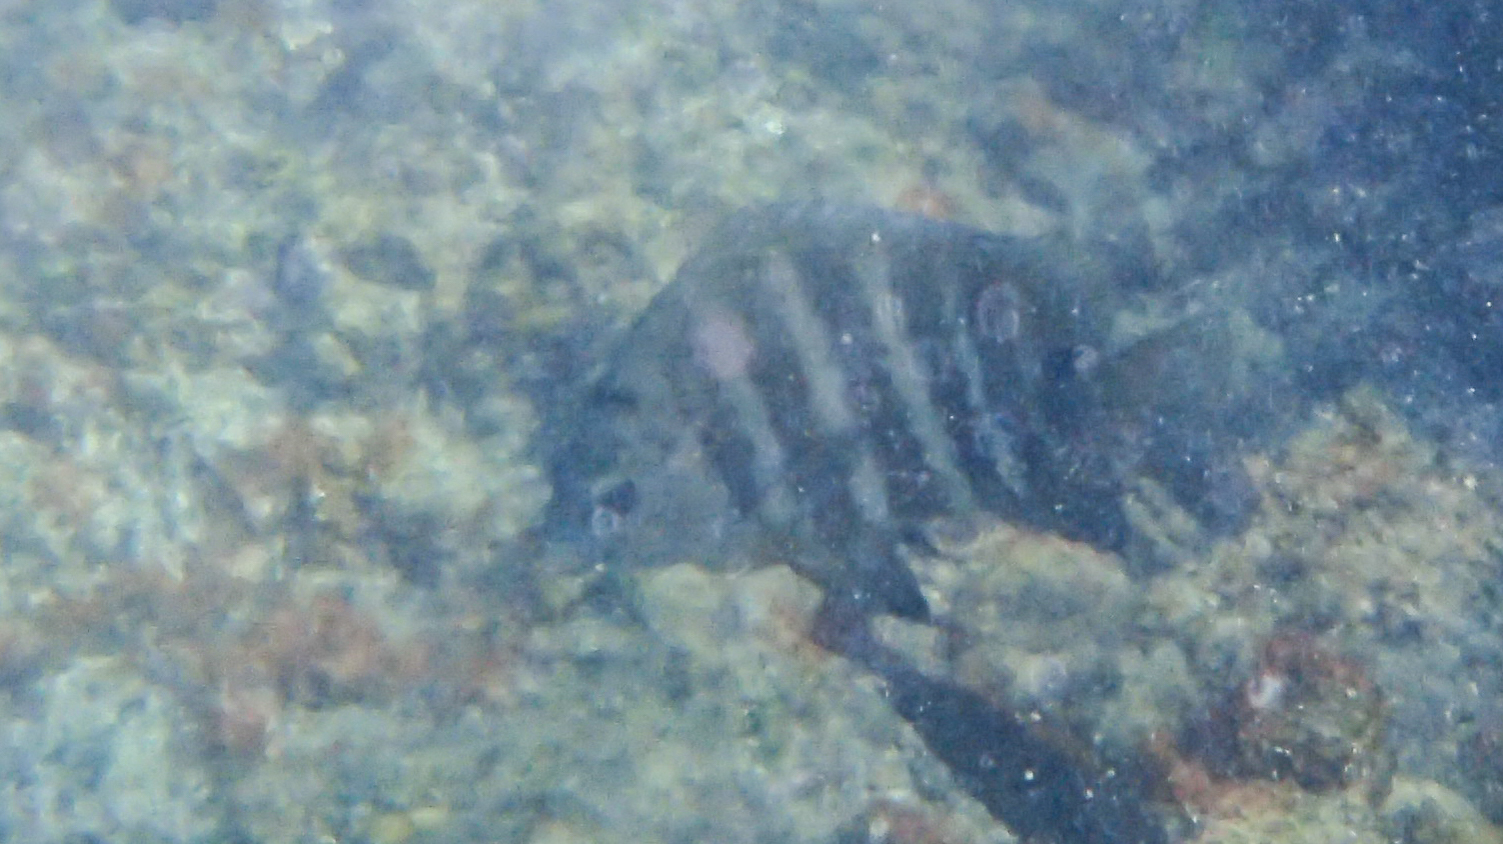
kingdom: Animalia
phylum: Chordata
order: Perciformes
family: Pomacentridae
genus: Abudefduf
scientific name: Abudefduf sordidus
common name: Blackspot sergeant
